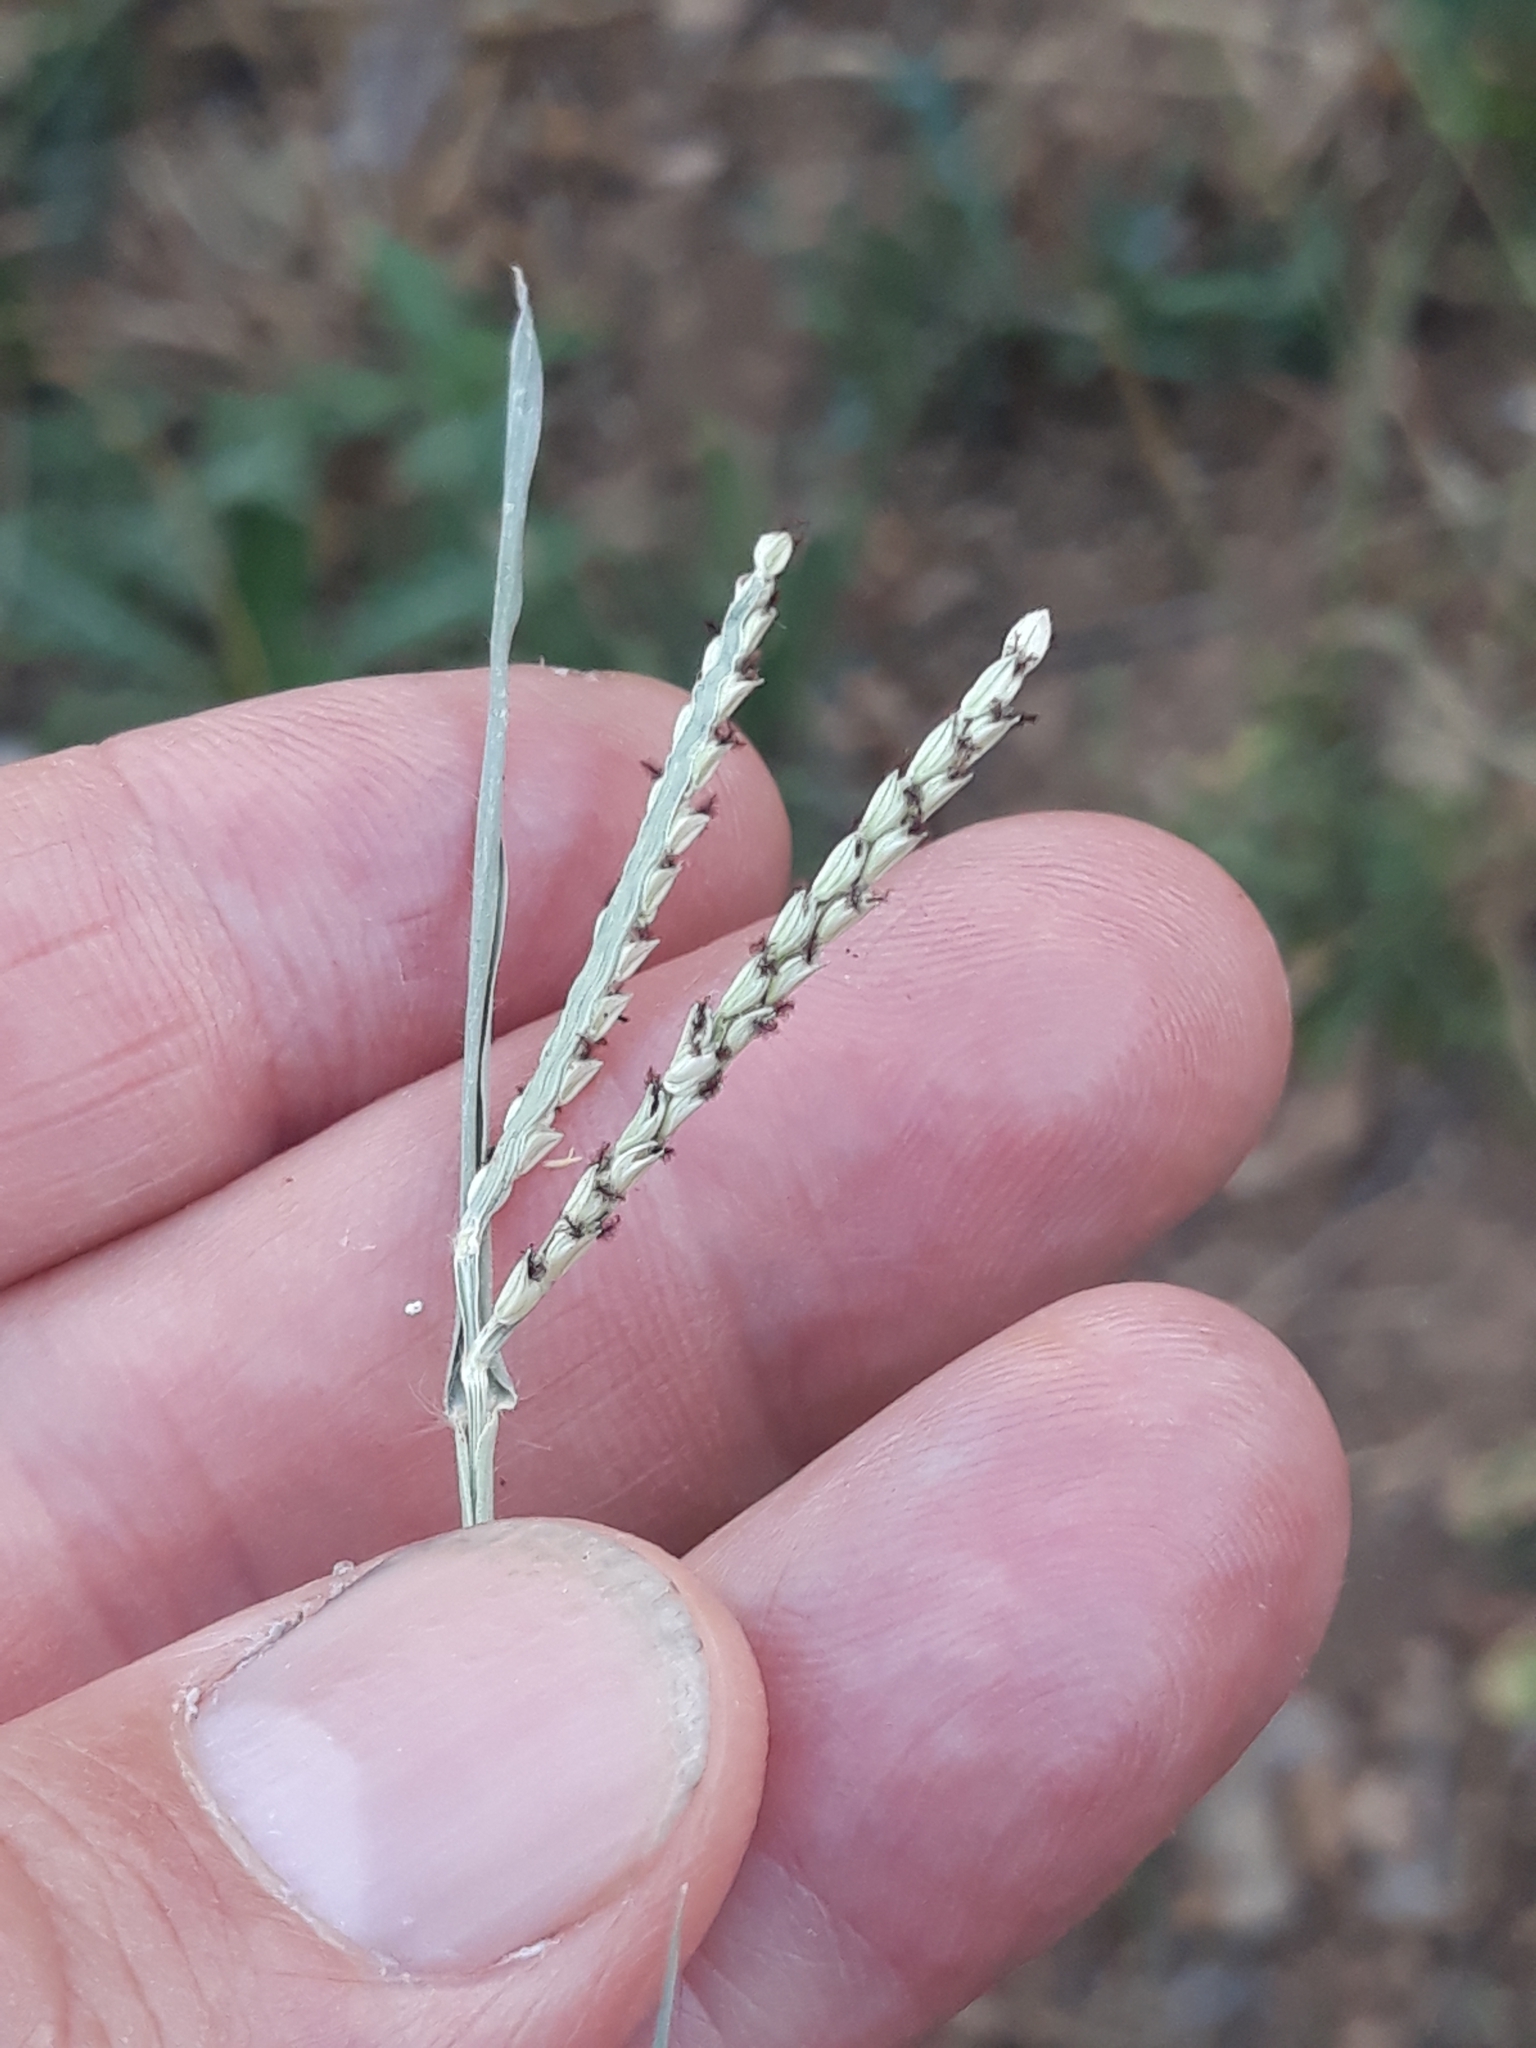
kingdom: Plantae
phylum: Tracheophyta
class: Liliopsida
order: Poales
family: Poaceae
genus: Paspalum
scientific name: Paspalum vaginatum
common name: Seashore paspalum
